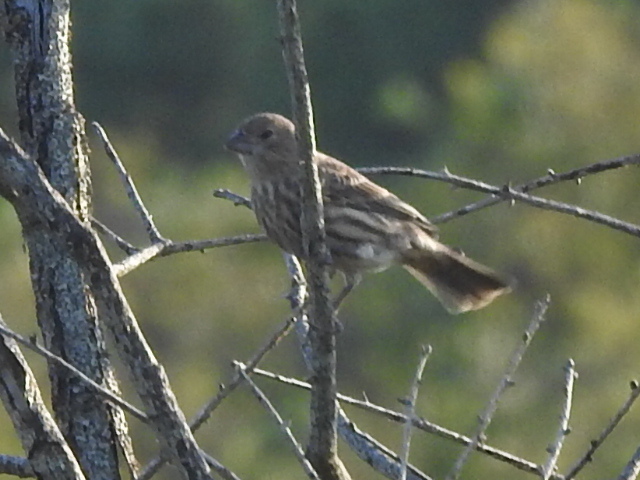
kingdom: Animalia
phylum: Chordata
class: Aves
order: Passeriformes
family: Fringillidae
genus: Haemorhous
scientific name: Haemorhous mexicanus
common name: House finch
